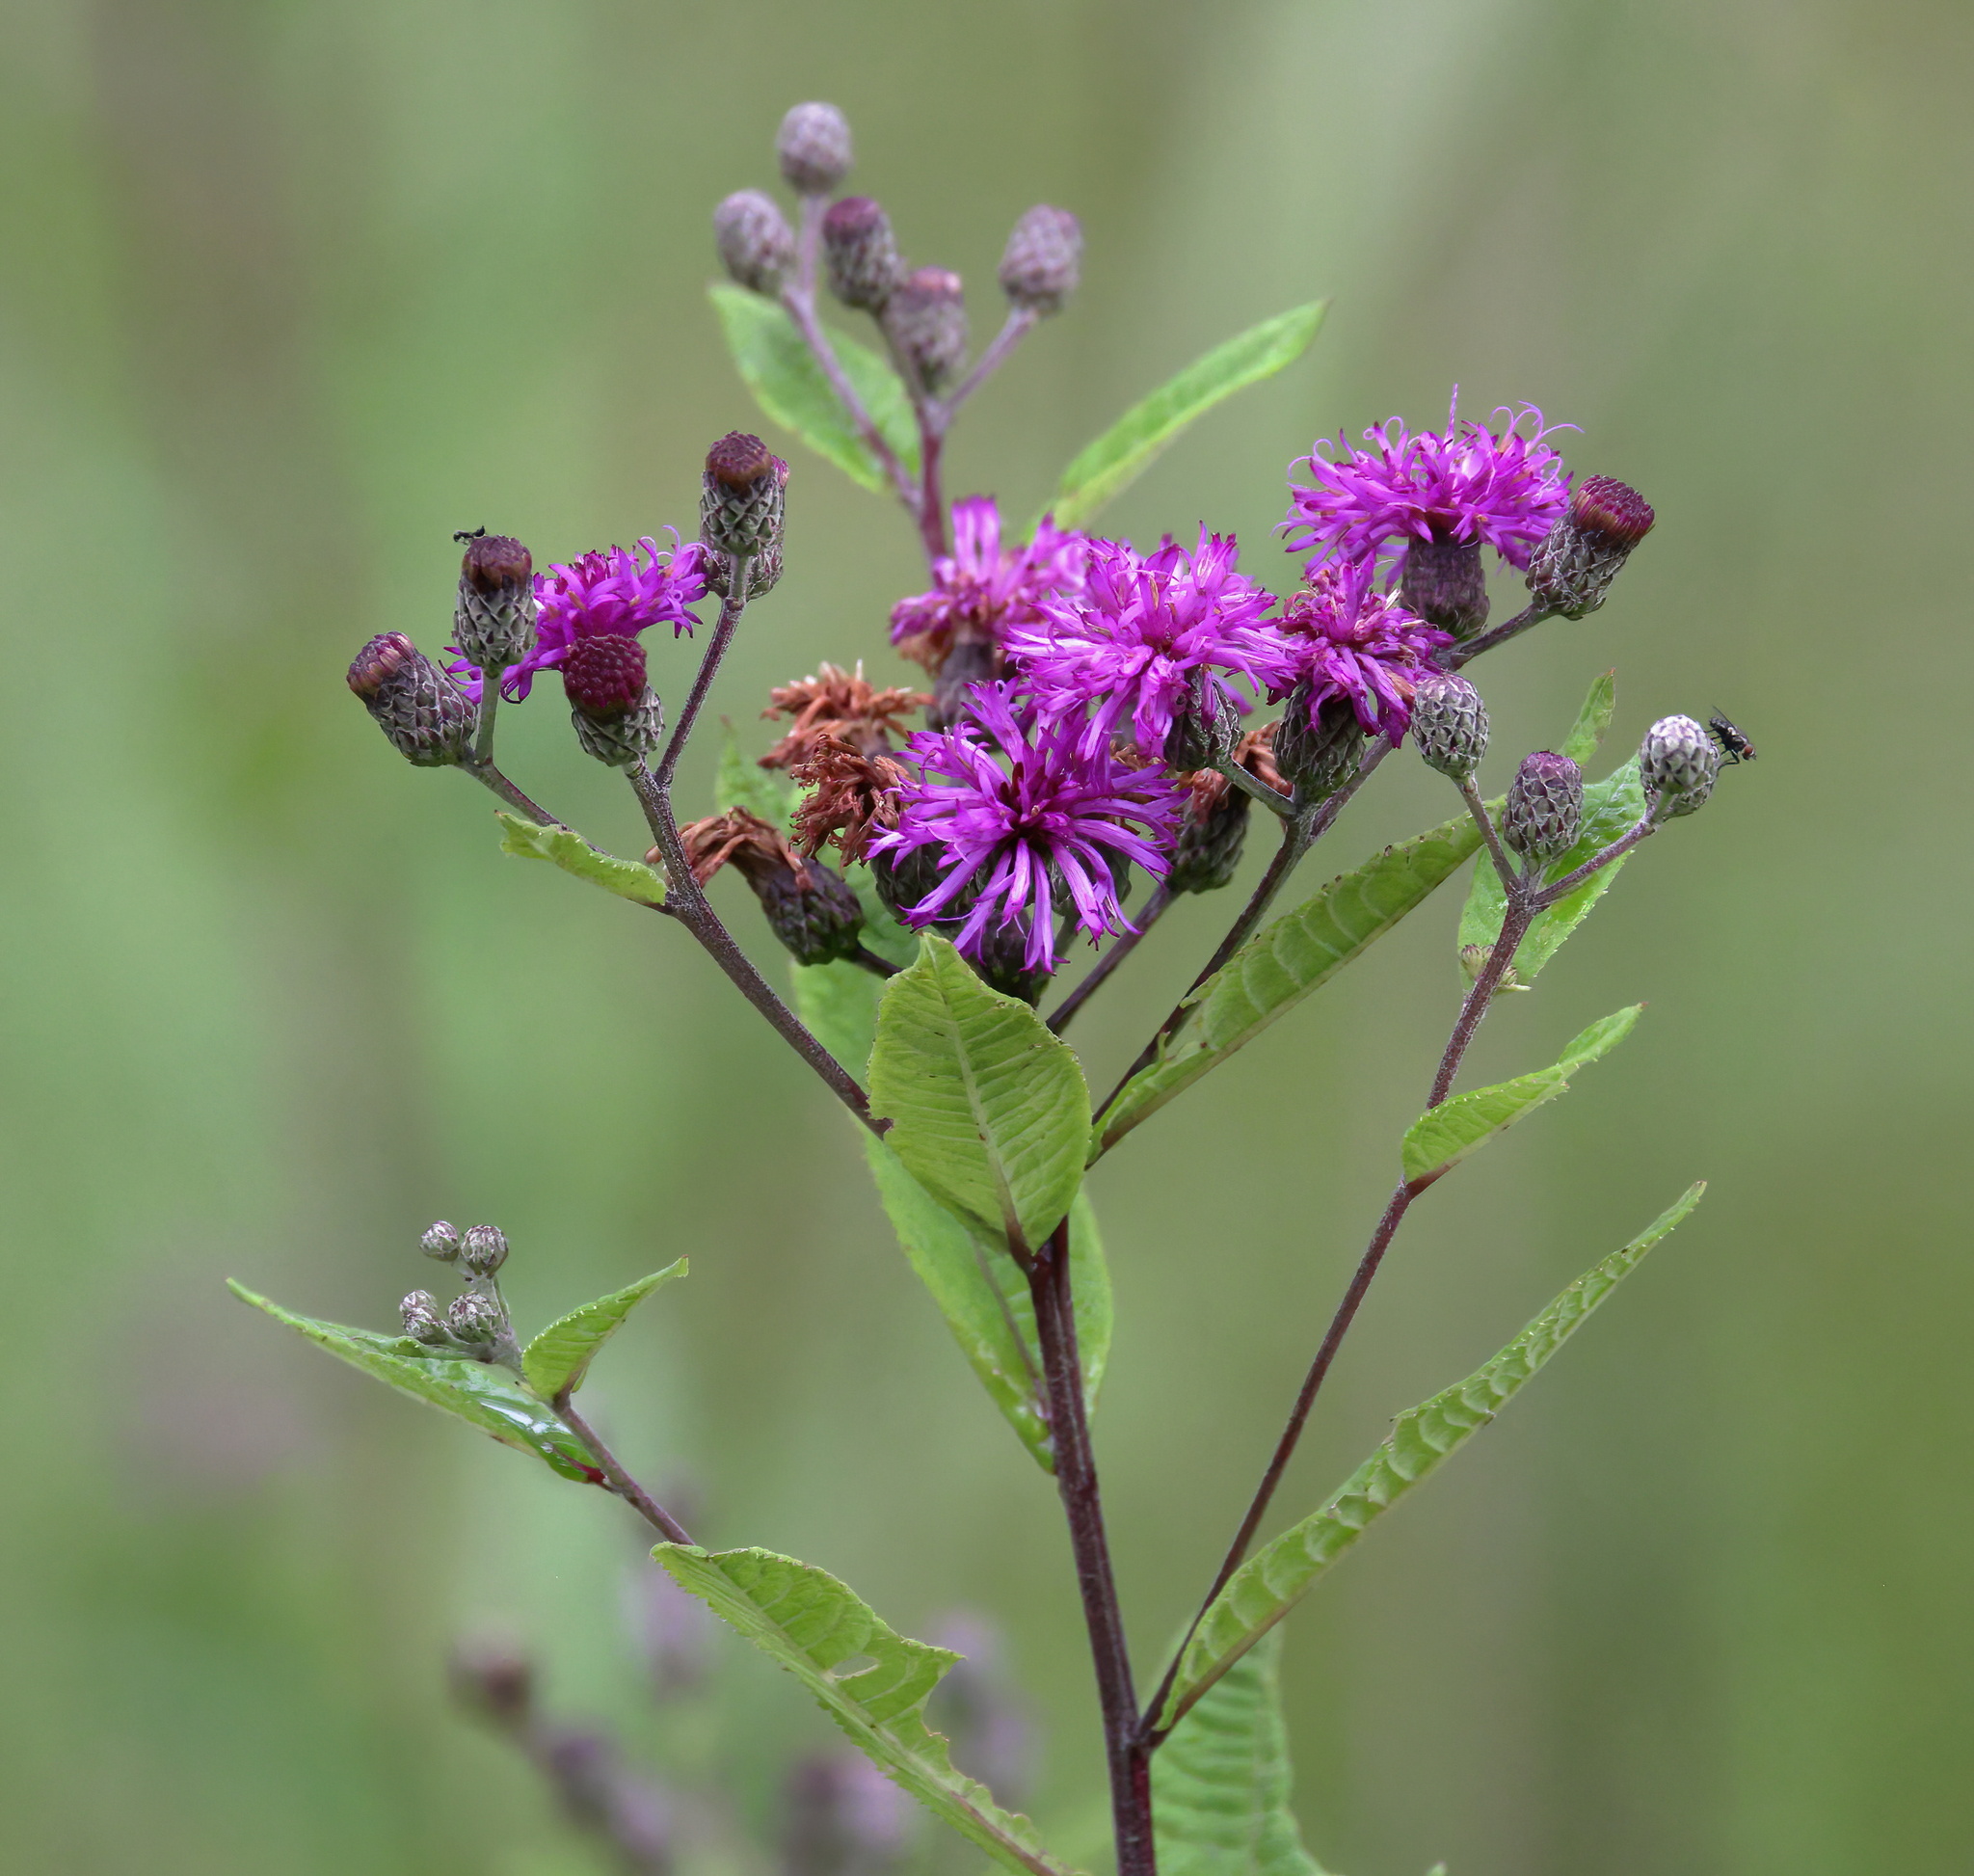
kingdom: Plantae
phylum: Tracheophyta
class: Magnoliopsida
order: Asterales
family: Asteraceae
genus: Vernonia
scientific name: Vernonia gigantea
